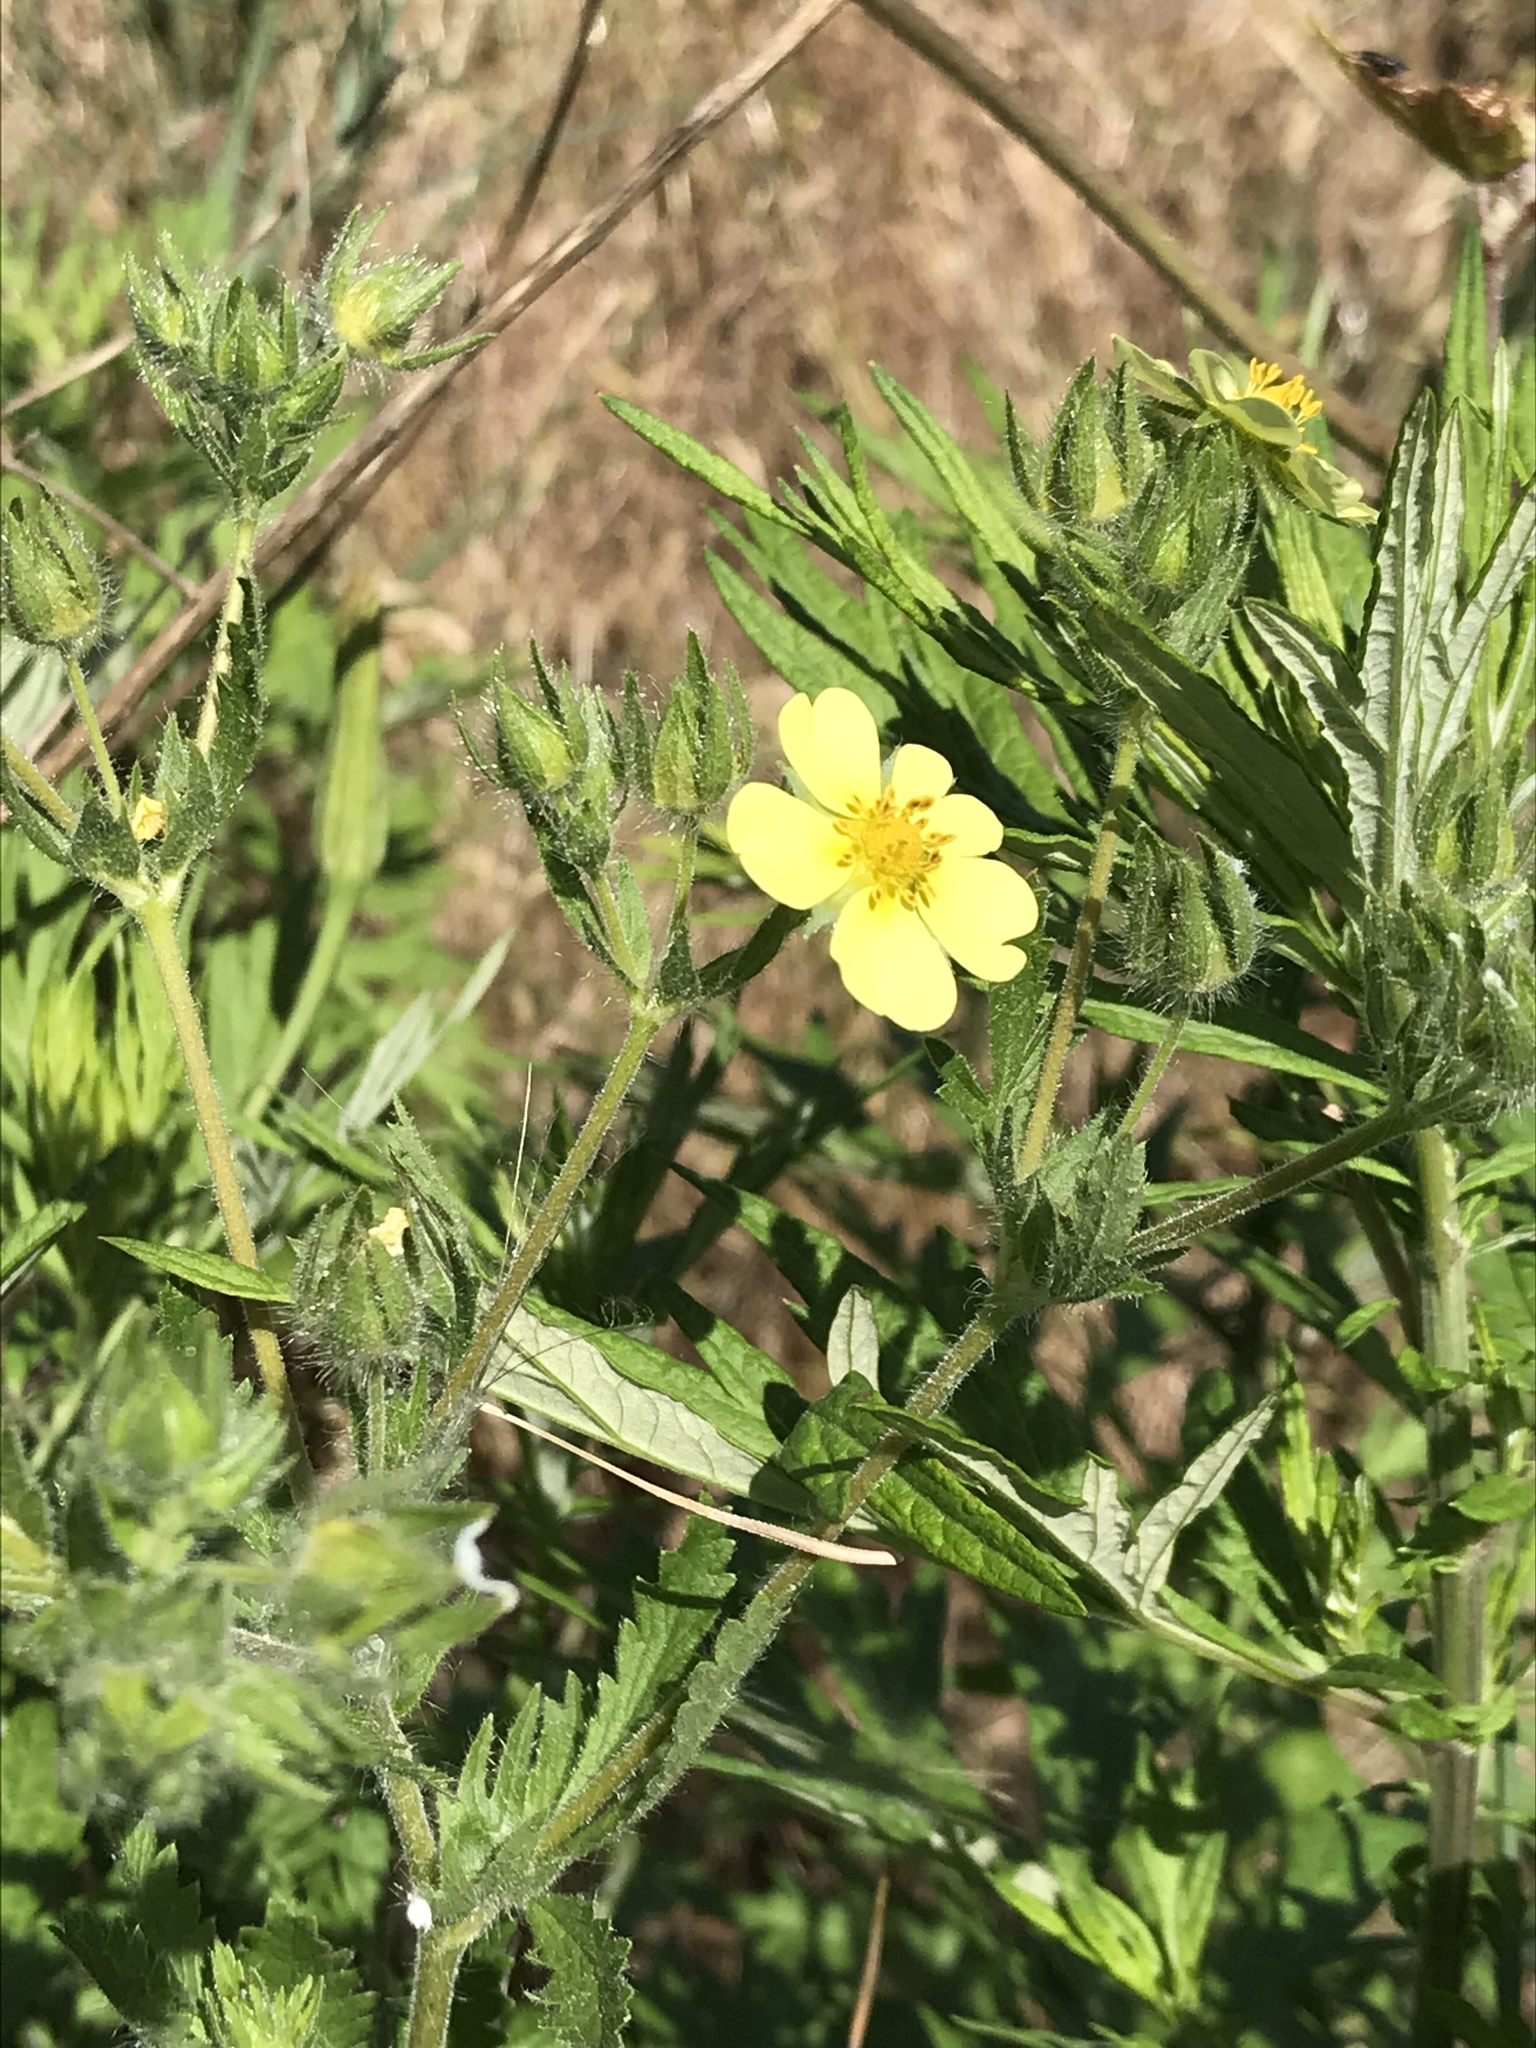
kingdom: Plantae
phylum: Tracheophyta
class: Magnoliopsida
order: Rosales
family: Rosaceae
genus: Potentilla
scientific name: Potentilla recta
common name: Sulphur cinquefoil
